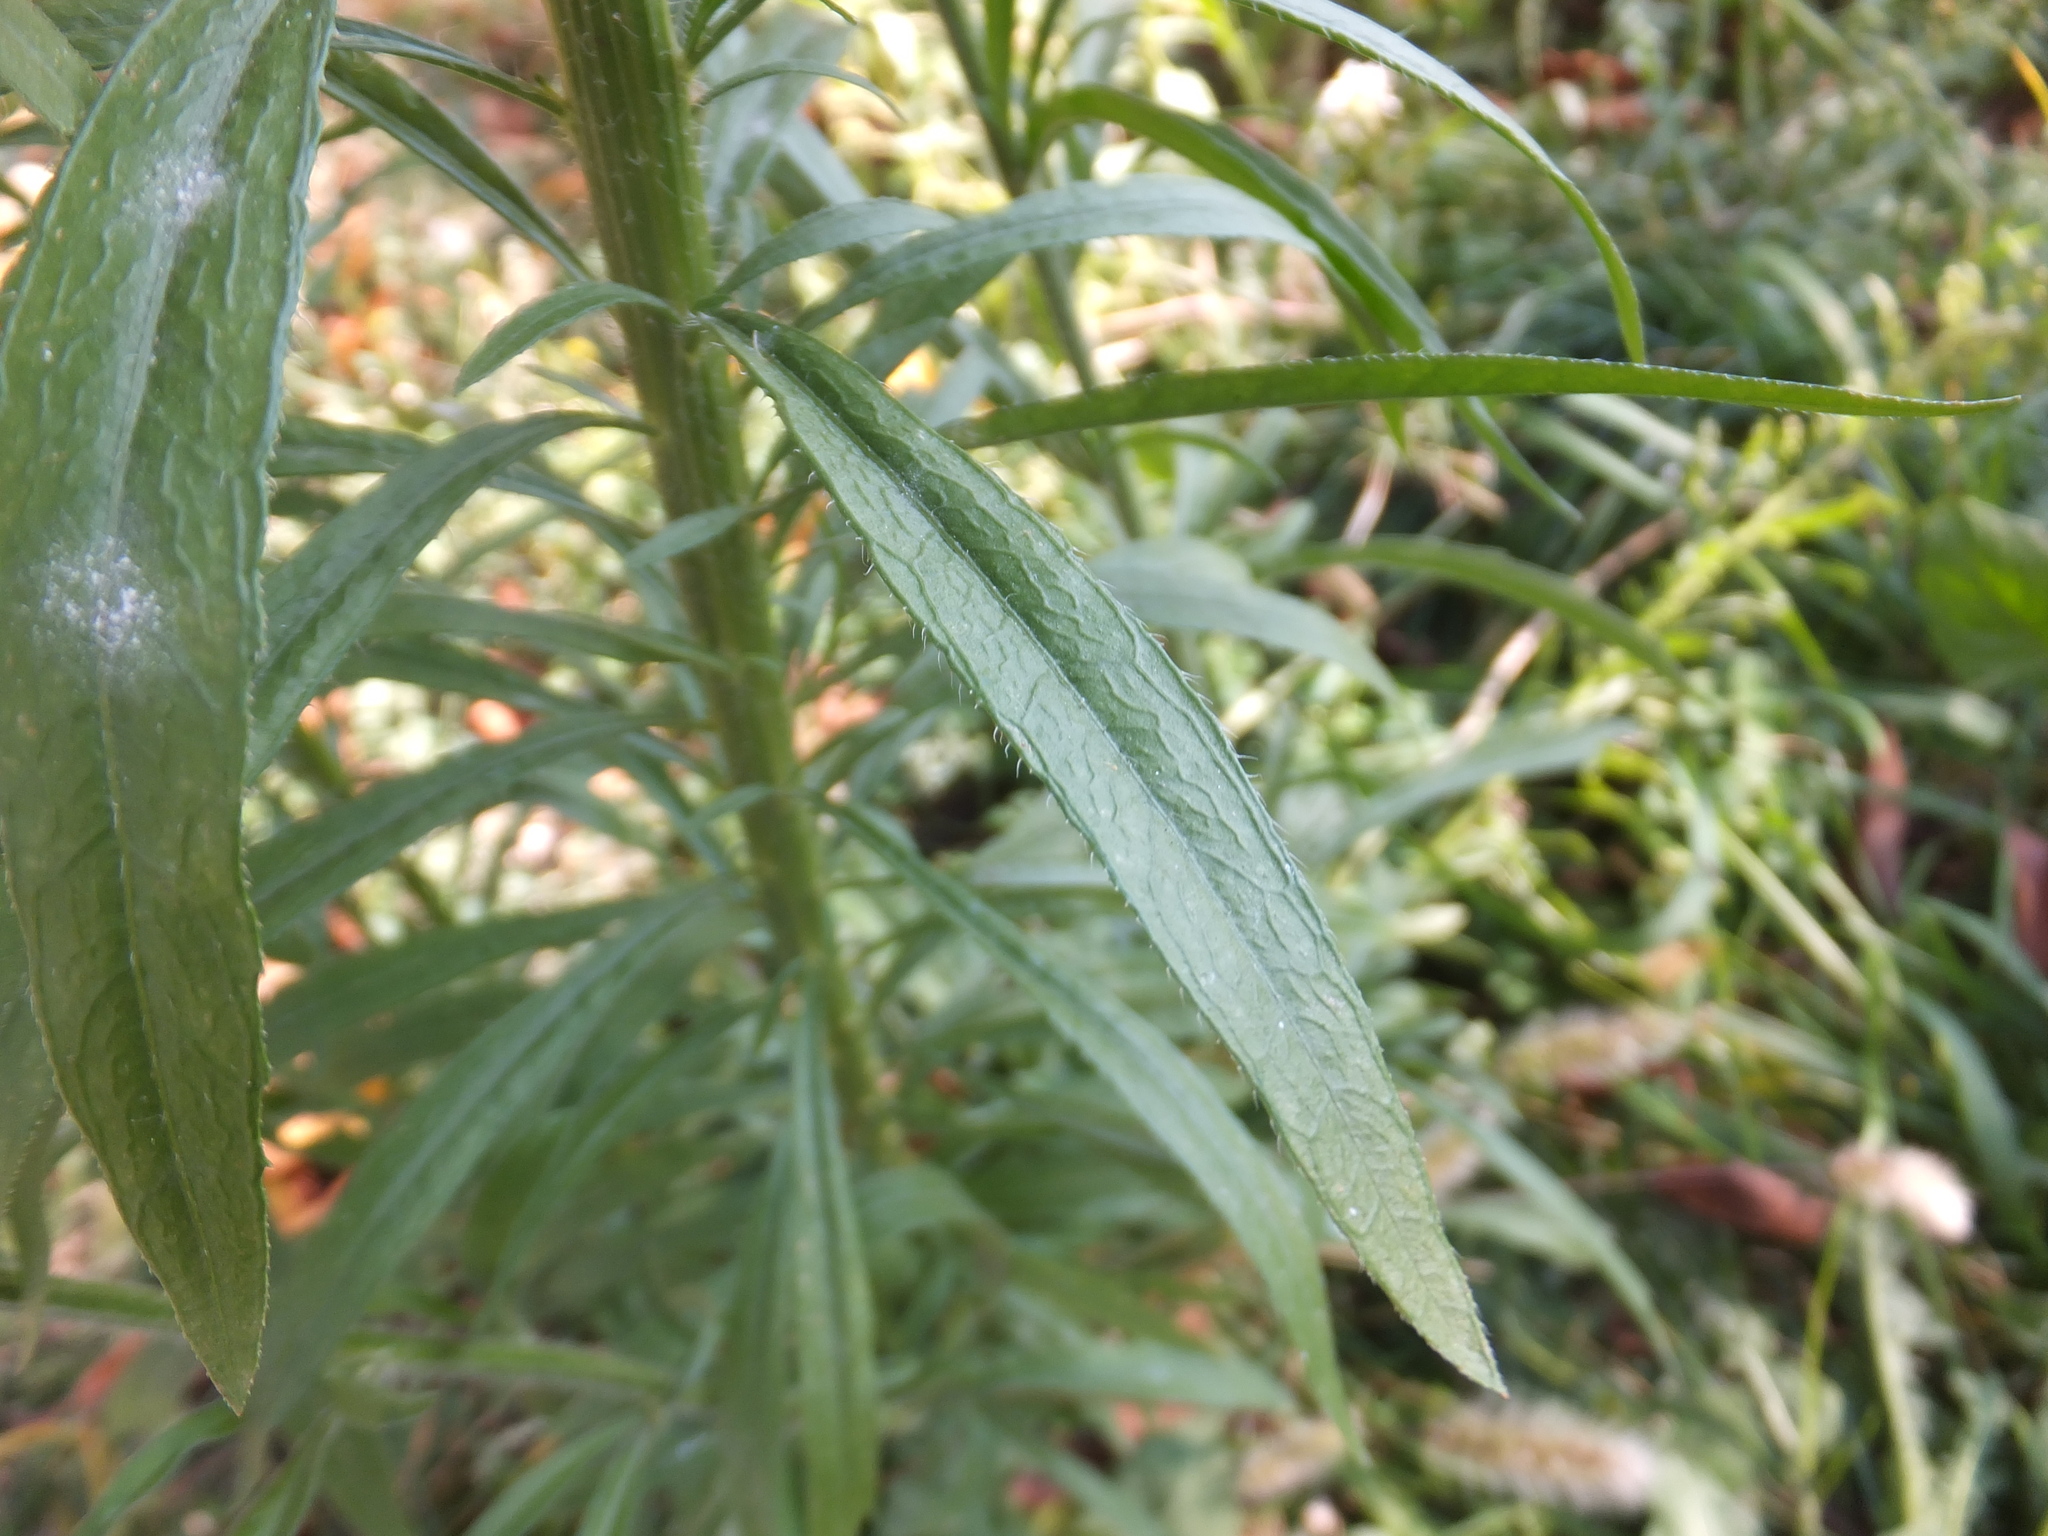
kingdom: Plantae
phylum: Tracheophyta
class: Magnoliopsida
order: Asterales
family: Asteraceae
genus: Erigeron
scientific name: Erigeron canadensis
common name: Canadian fleabane
